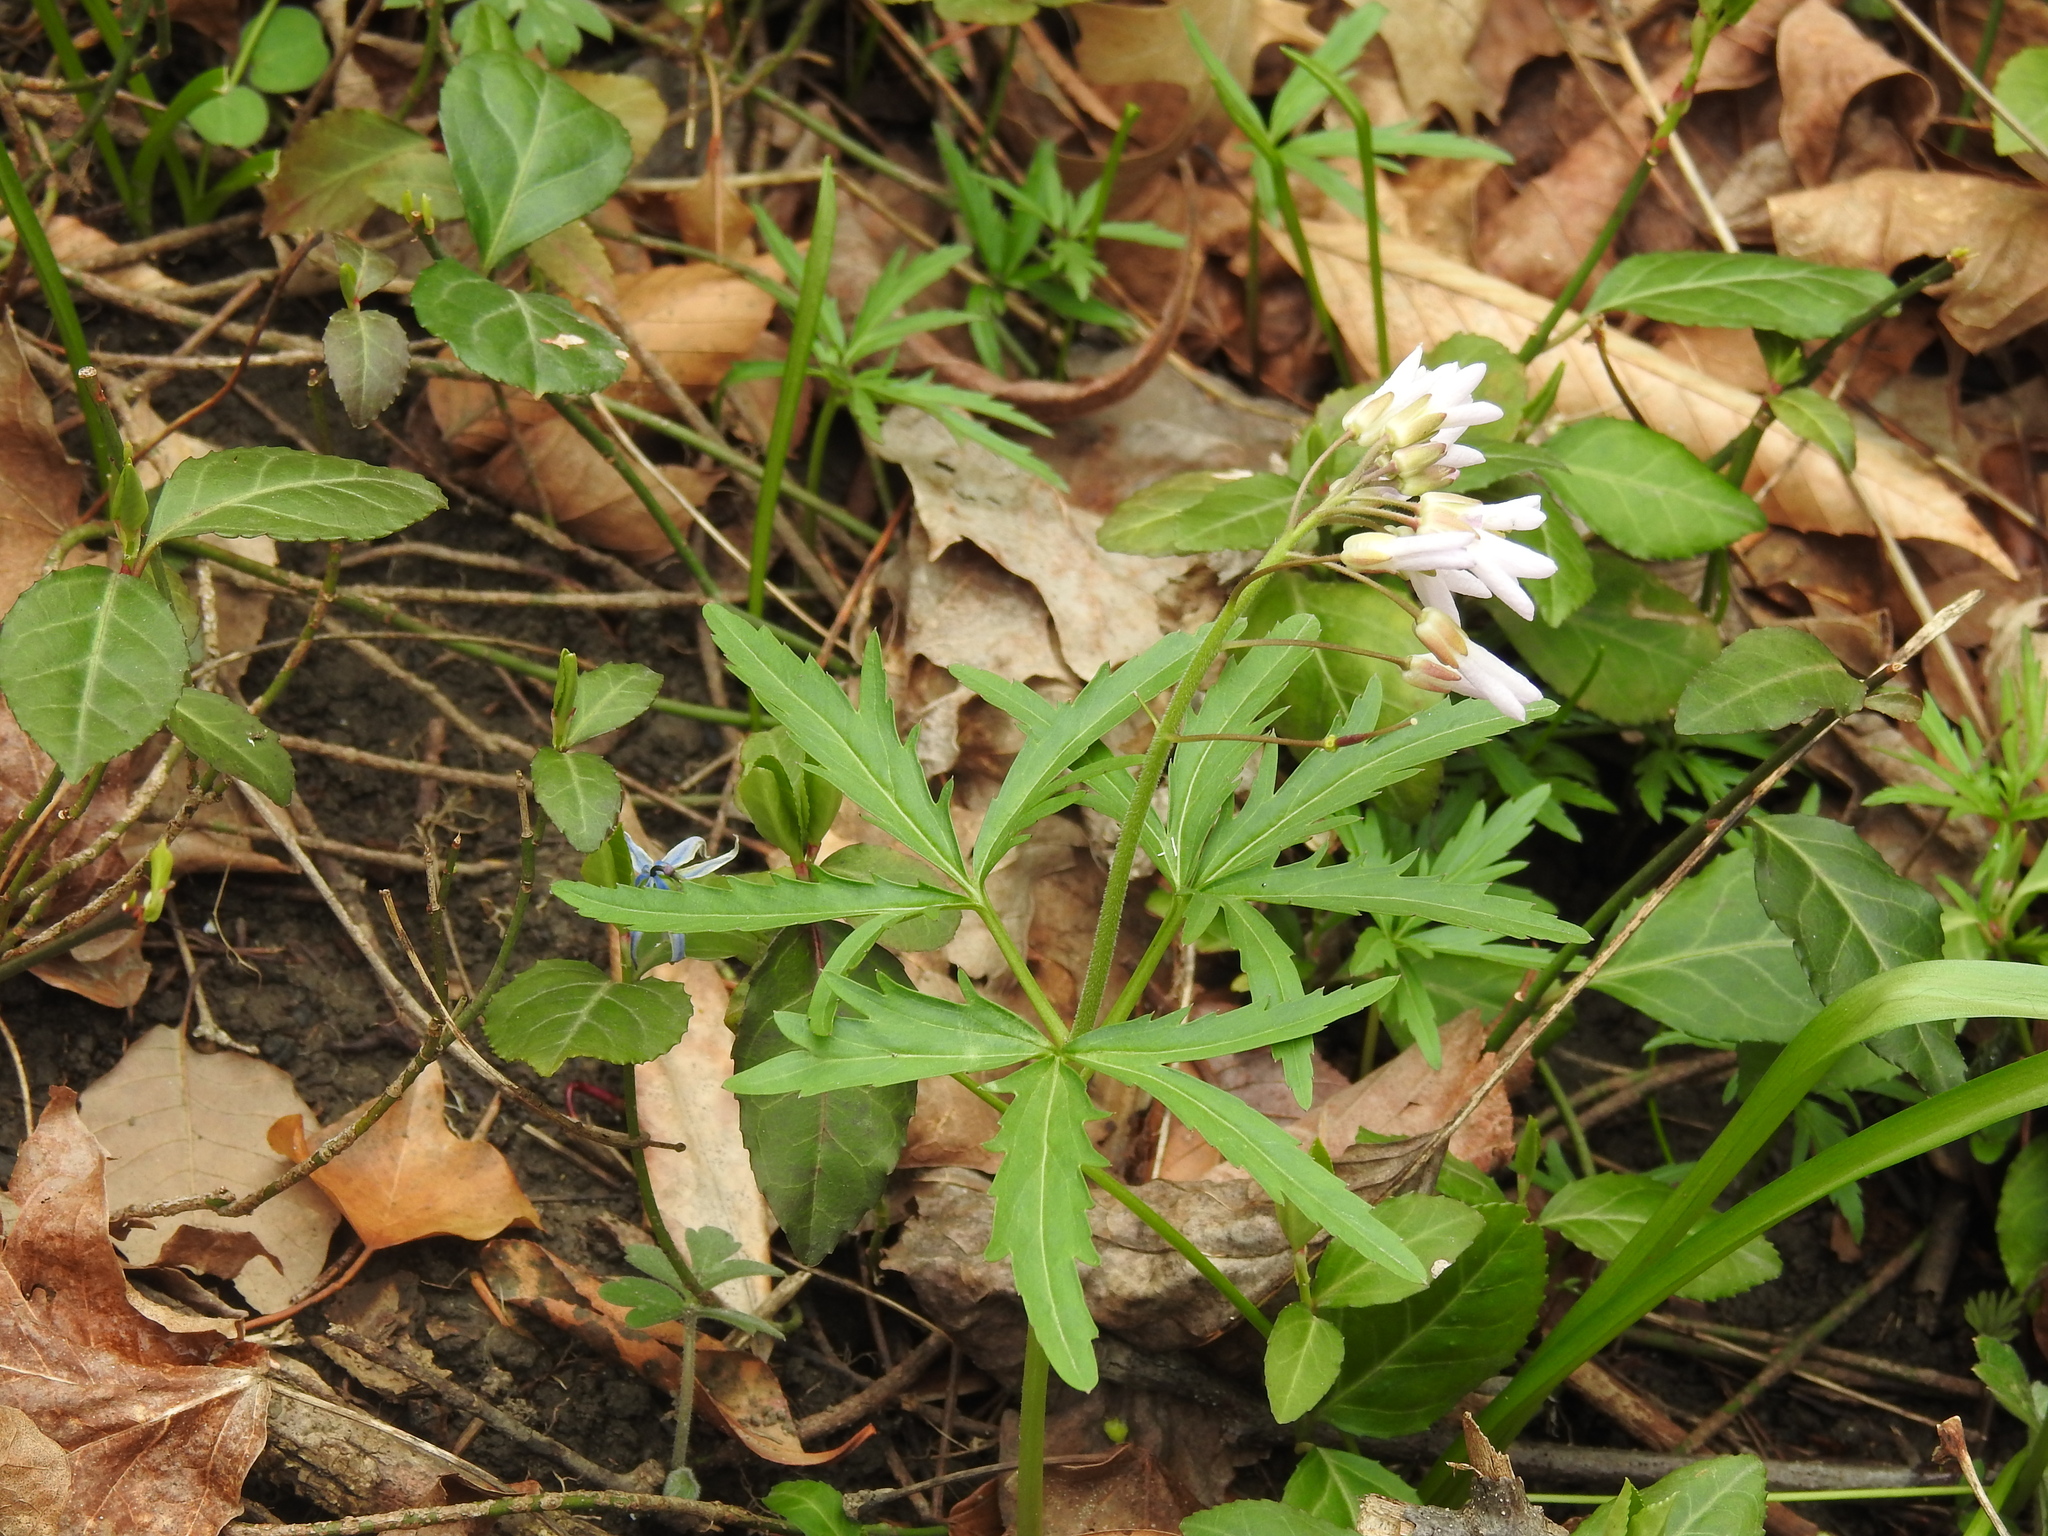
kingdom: Plantae
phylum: Tracheophyta
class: Magnoliopsida
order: Brassicales
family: Brassicaceae
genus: Cardamine
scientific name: Cardamine concatenata
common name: Cut-leaf toothcup
